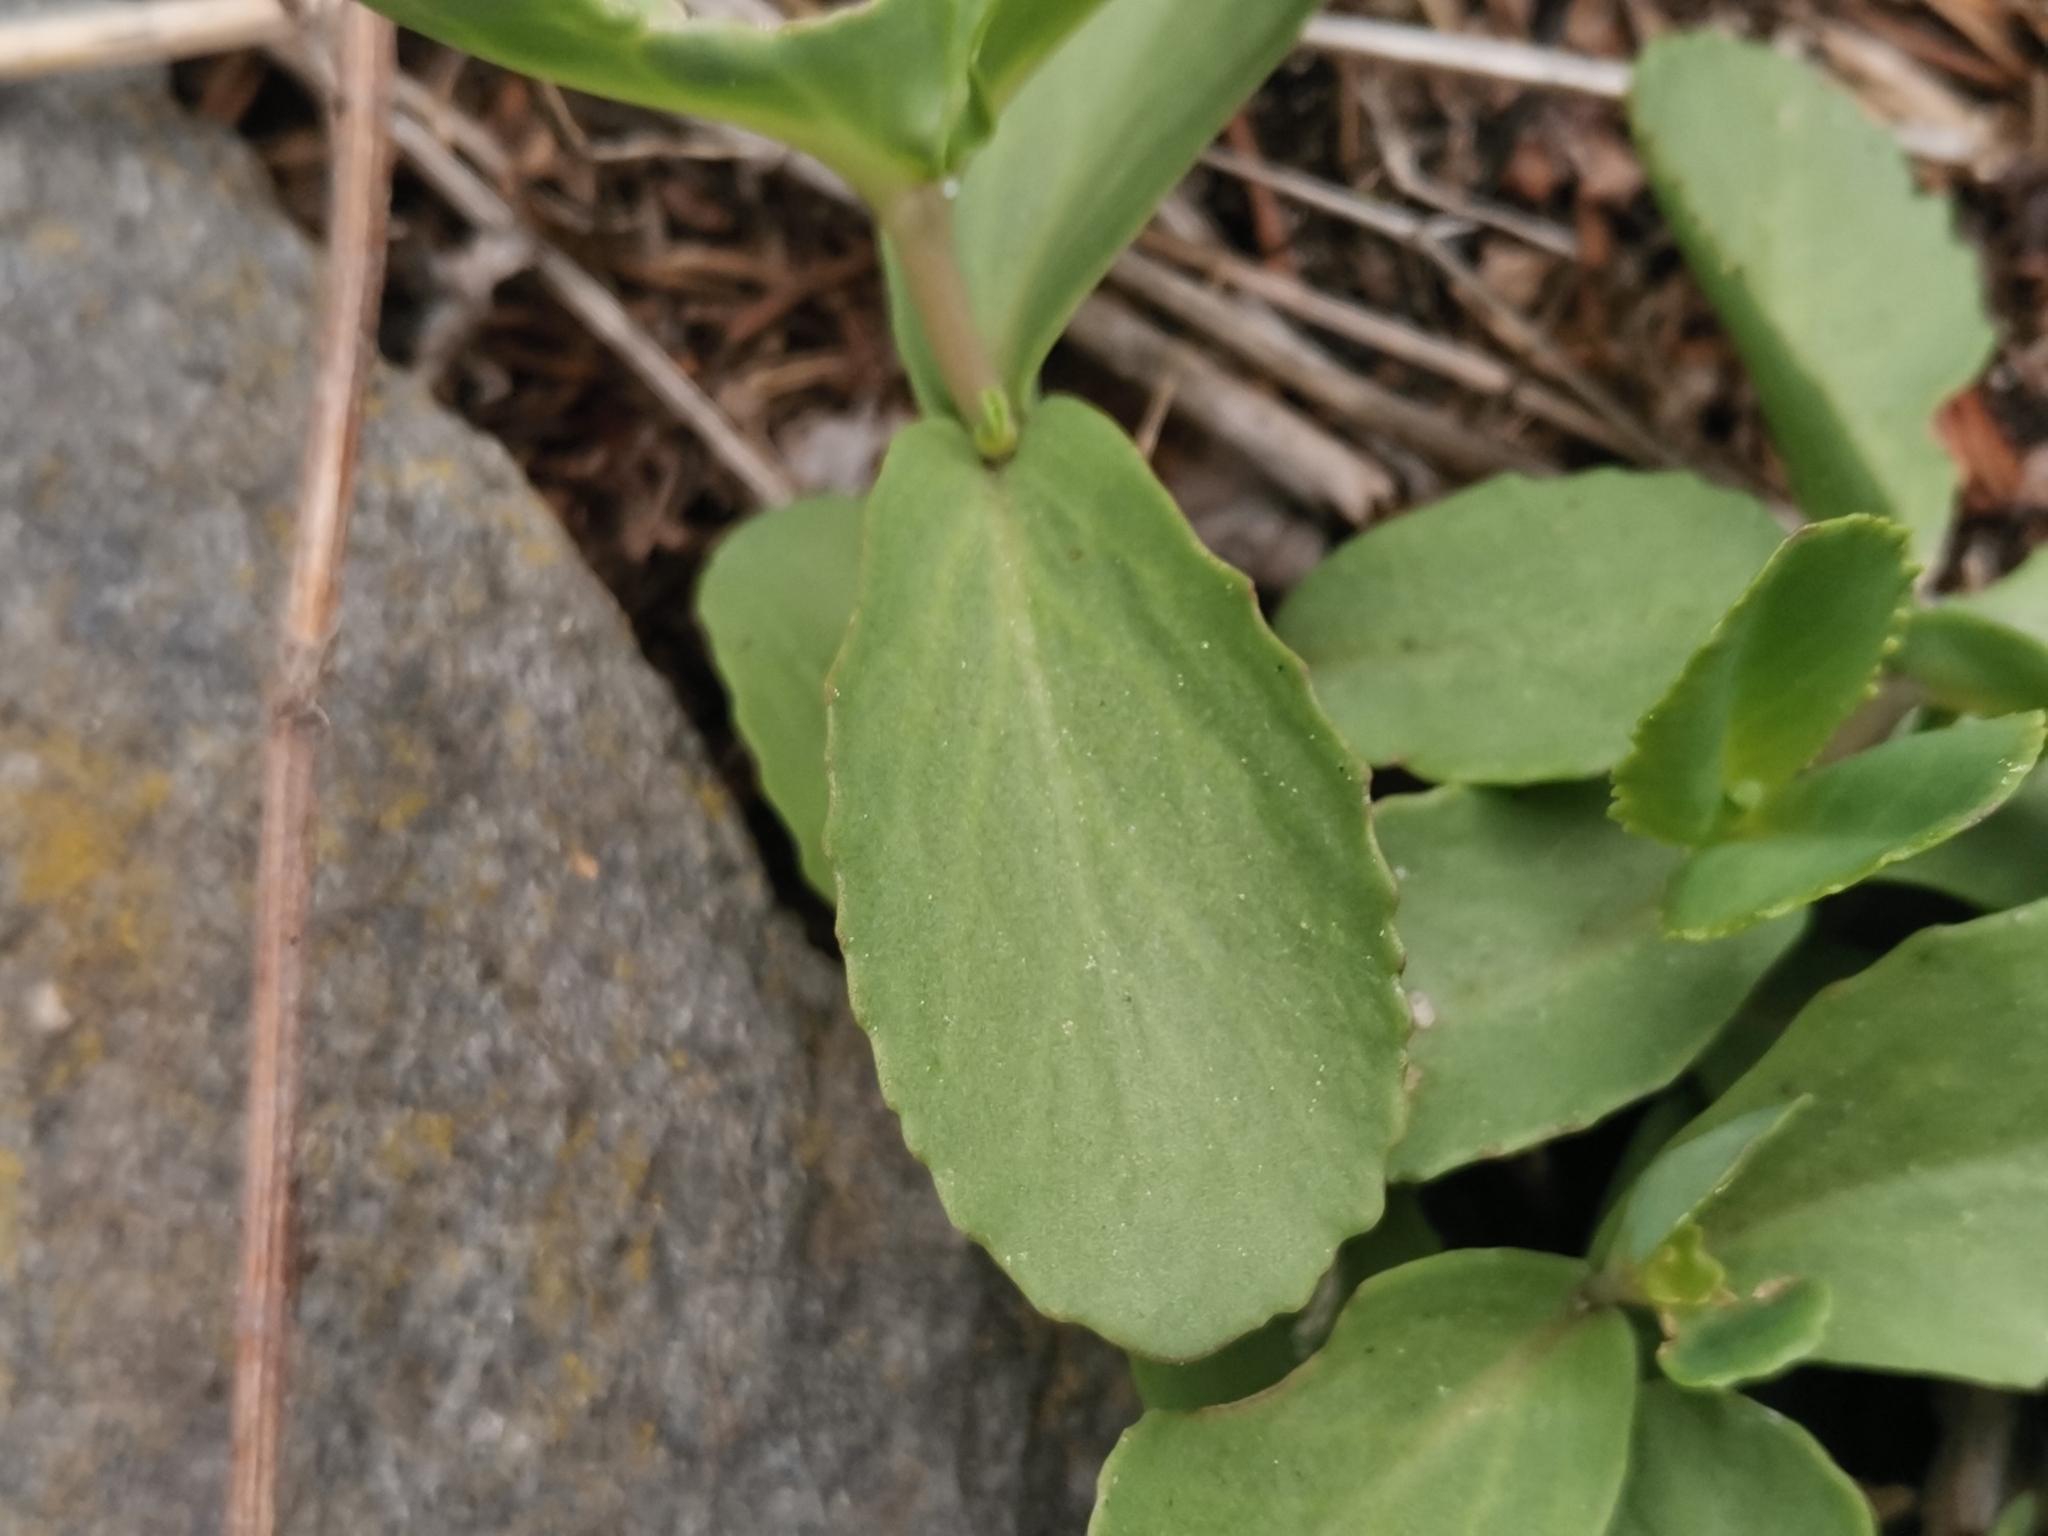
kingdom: Plantae
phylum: Tracheophyta
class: Magnoliopsida
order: Saxifragales
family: Crassulaceae
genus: Hylotelephium
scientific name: Hylotelephium maximum
